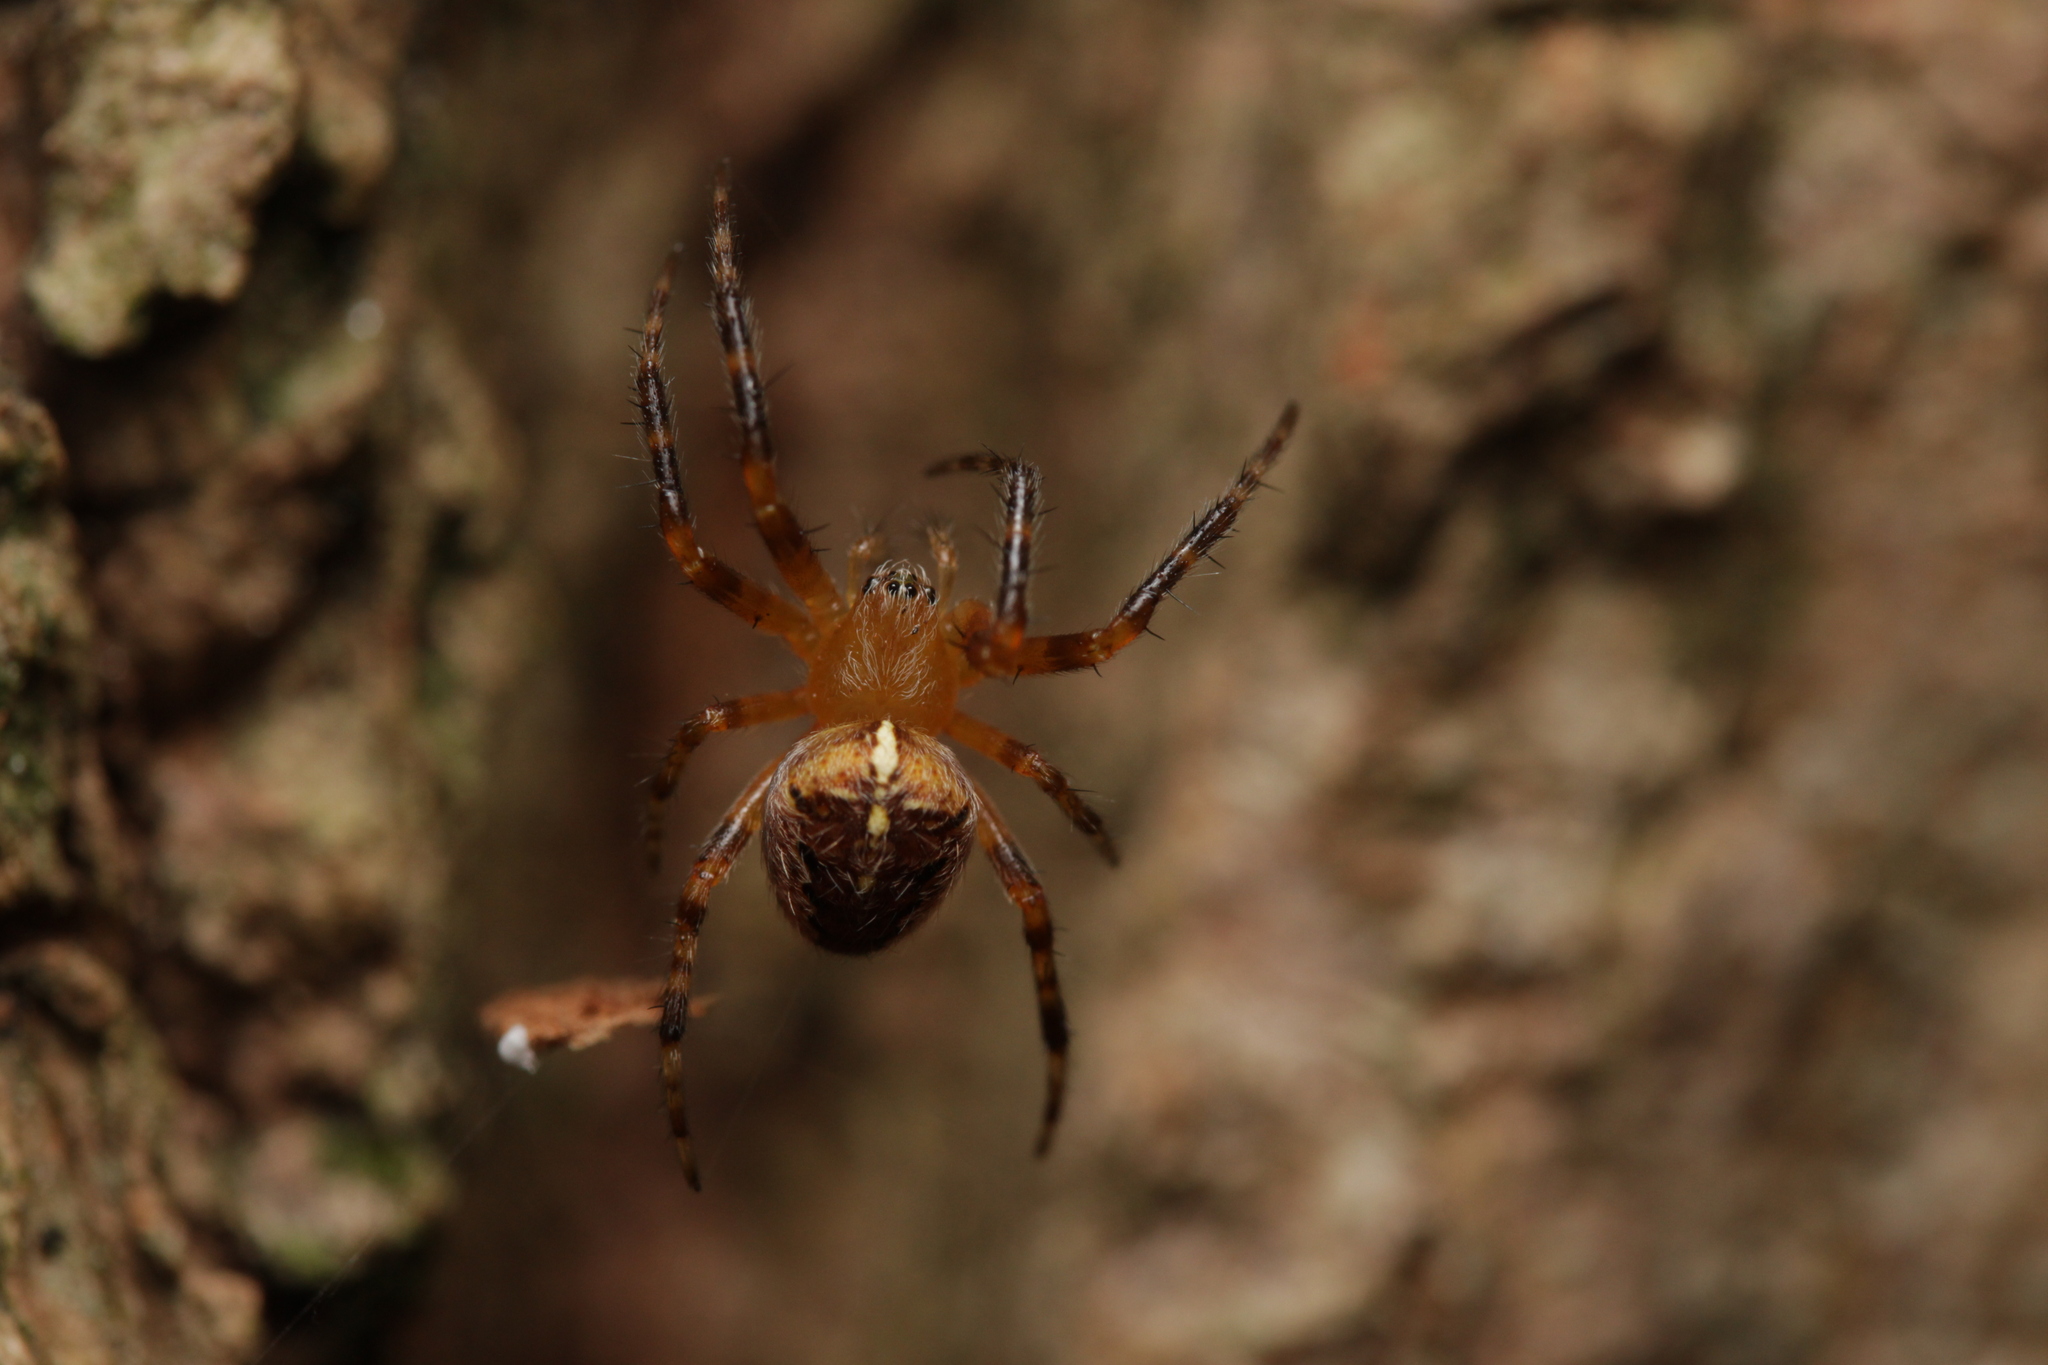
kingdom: Animalia
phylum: Arthropoda
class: Arachnida
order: Araneae
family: Araneidae
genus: Araneus
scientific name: Araneus diadematus
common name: Cross orbweaver
